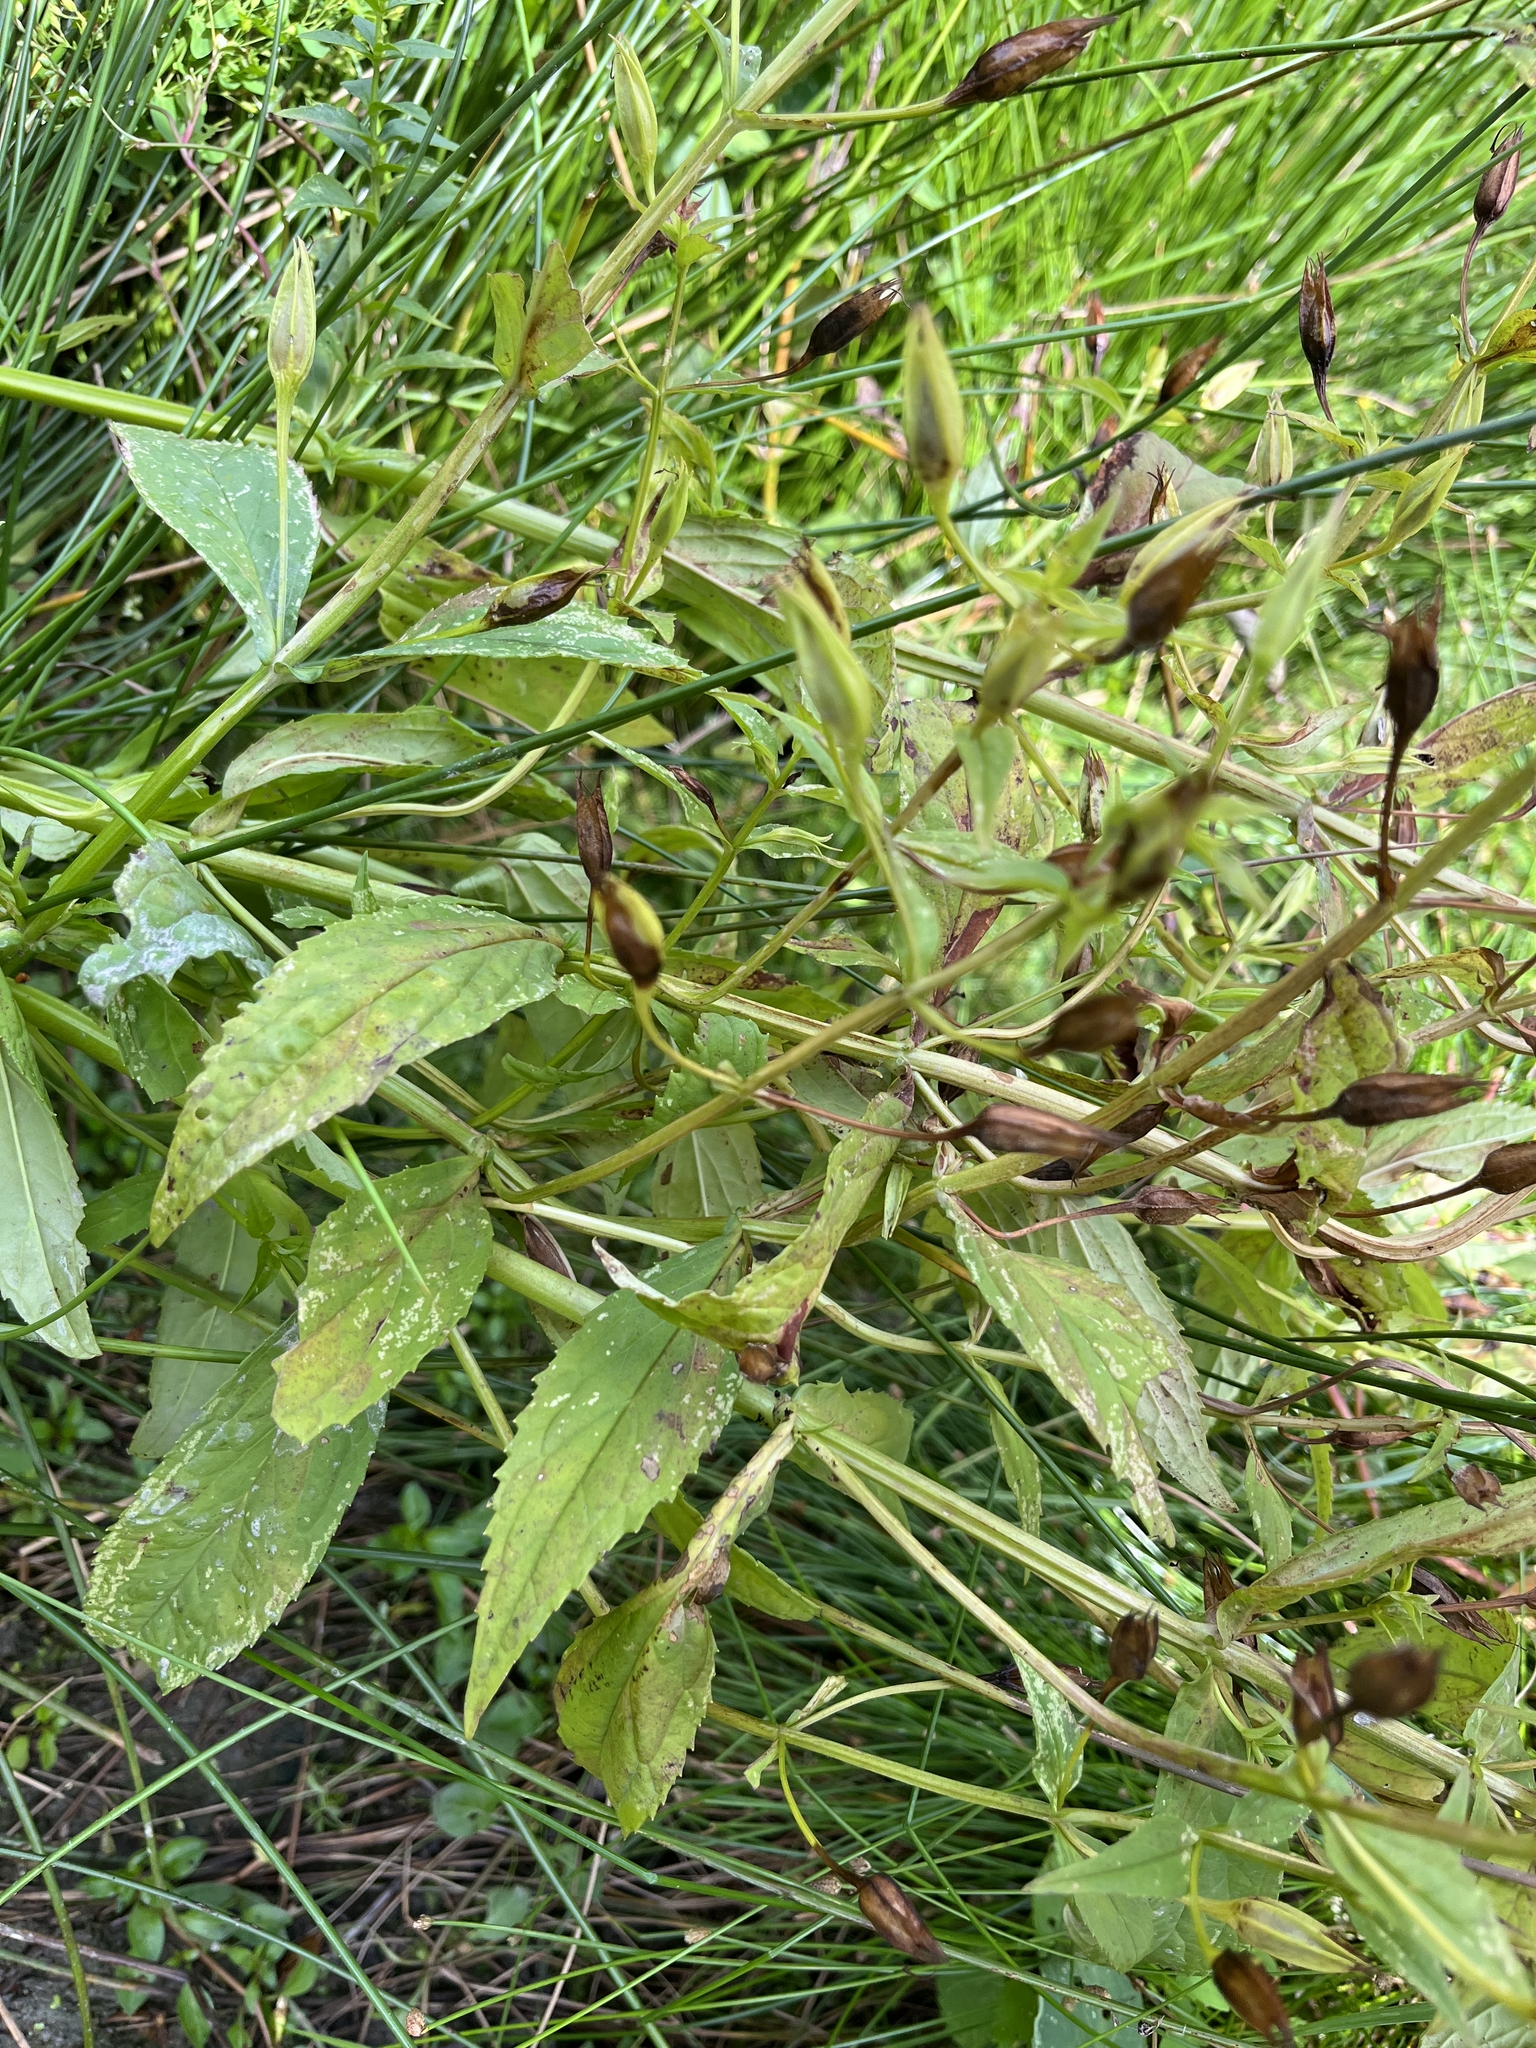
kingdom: Plantae
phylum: Tracheophyta
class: Magnoliopsida
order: Lamiales
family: Phrymaceae
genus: Mimulus
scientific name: Mimulus ringens
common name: Allegheny monkeyflower
